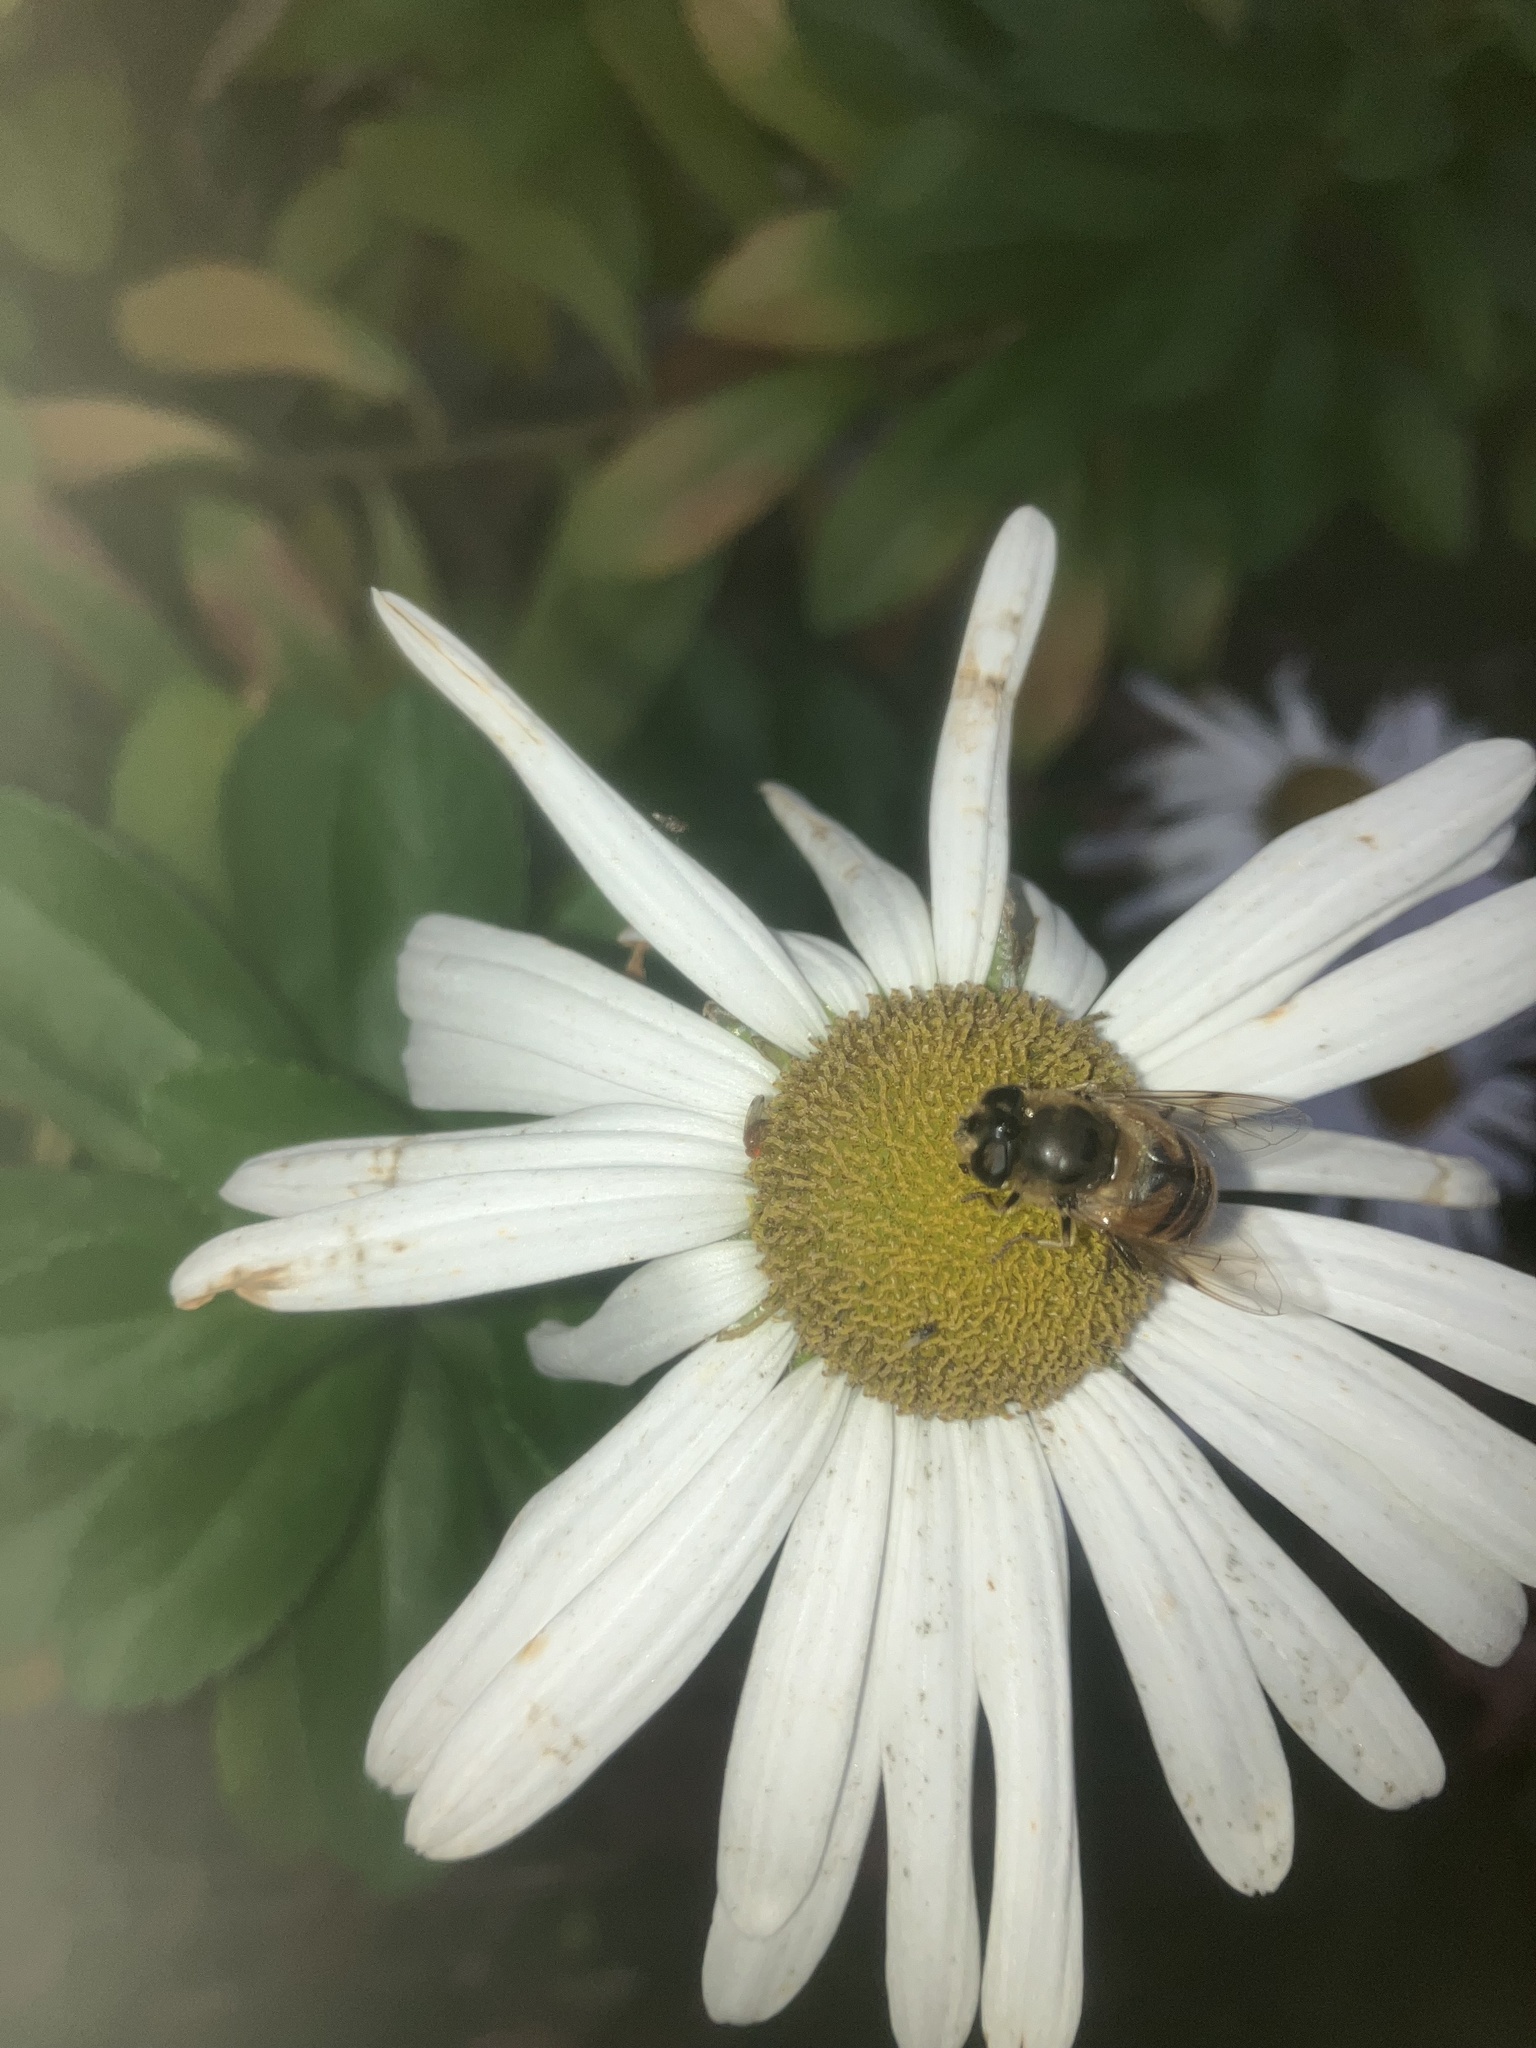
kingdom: Animalia
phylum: Arthropoda
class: Insecta
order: Diptera
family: Syrphidae
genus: Eristalis
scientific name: Eristalis tenax
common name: Drone fly
